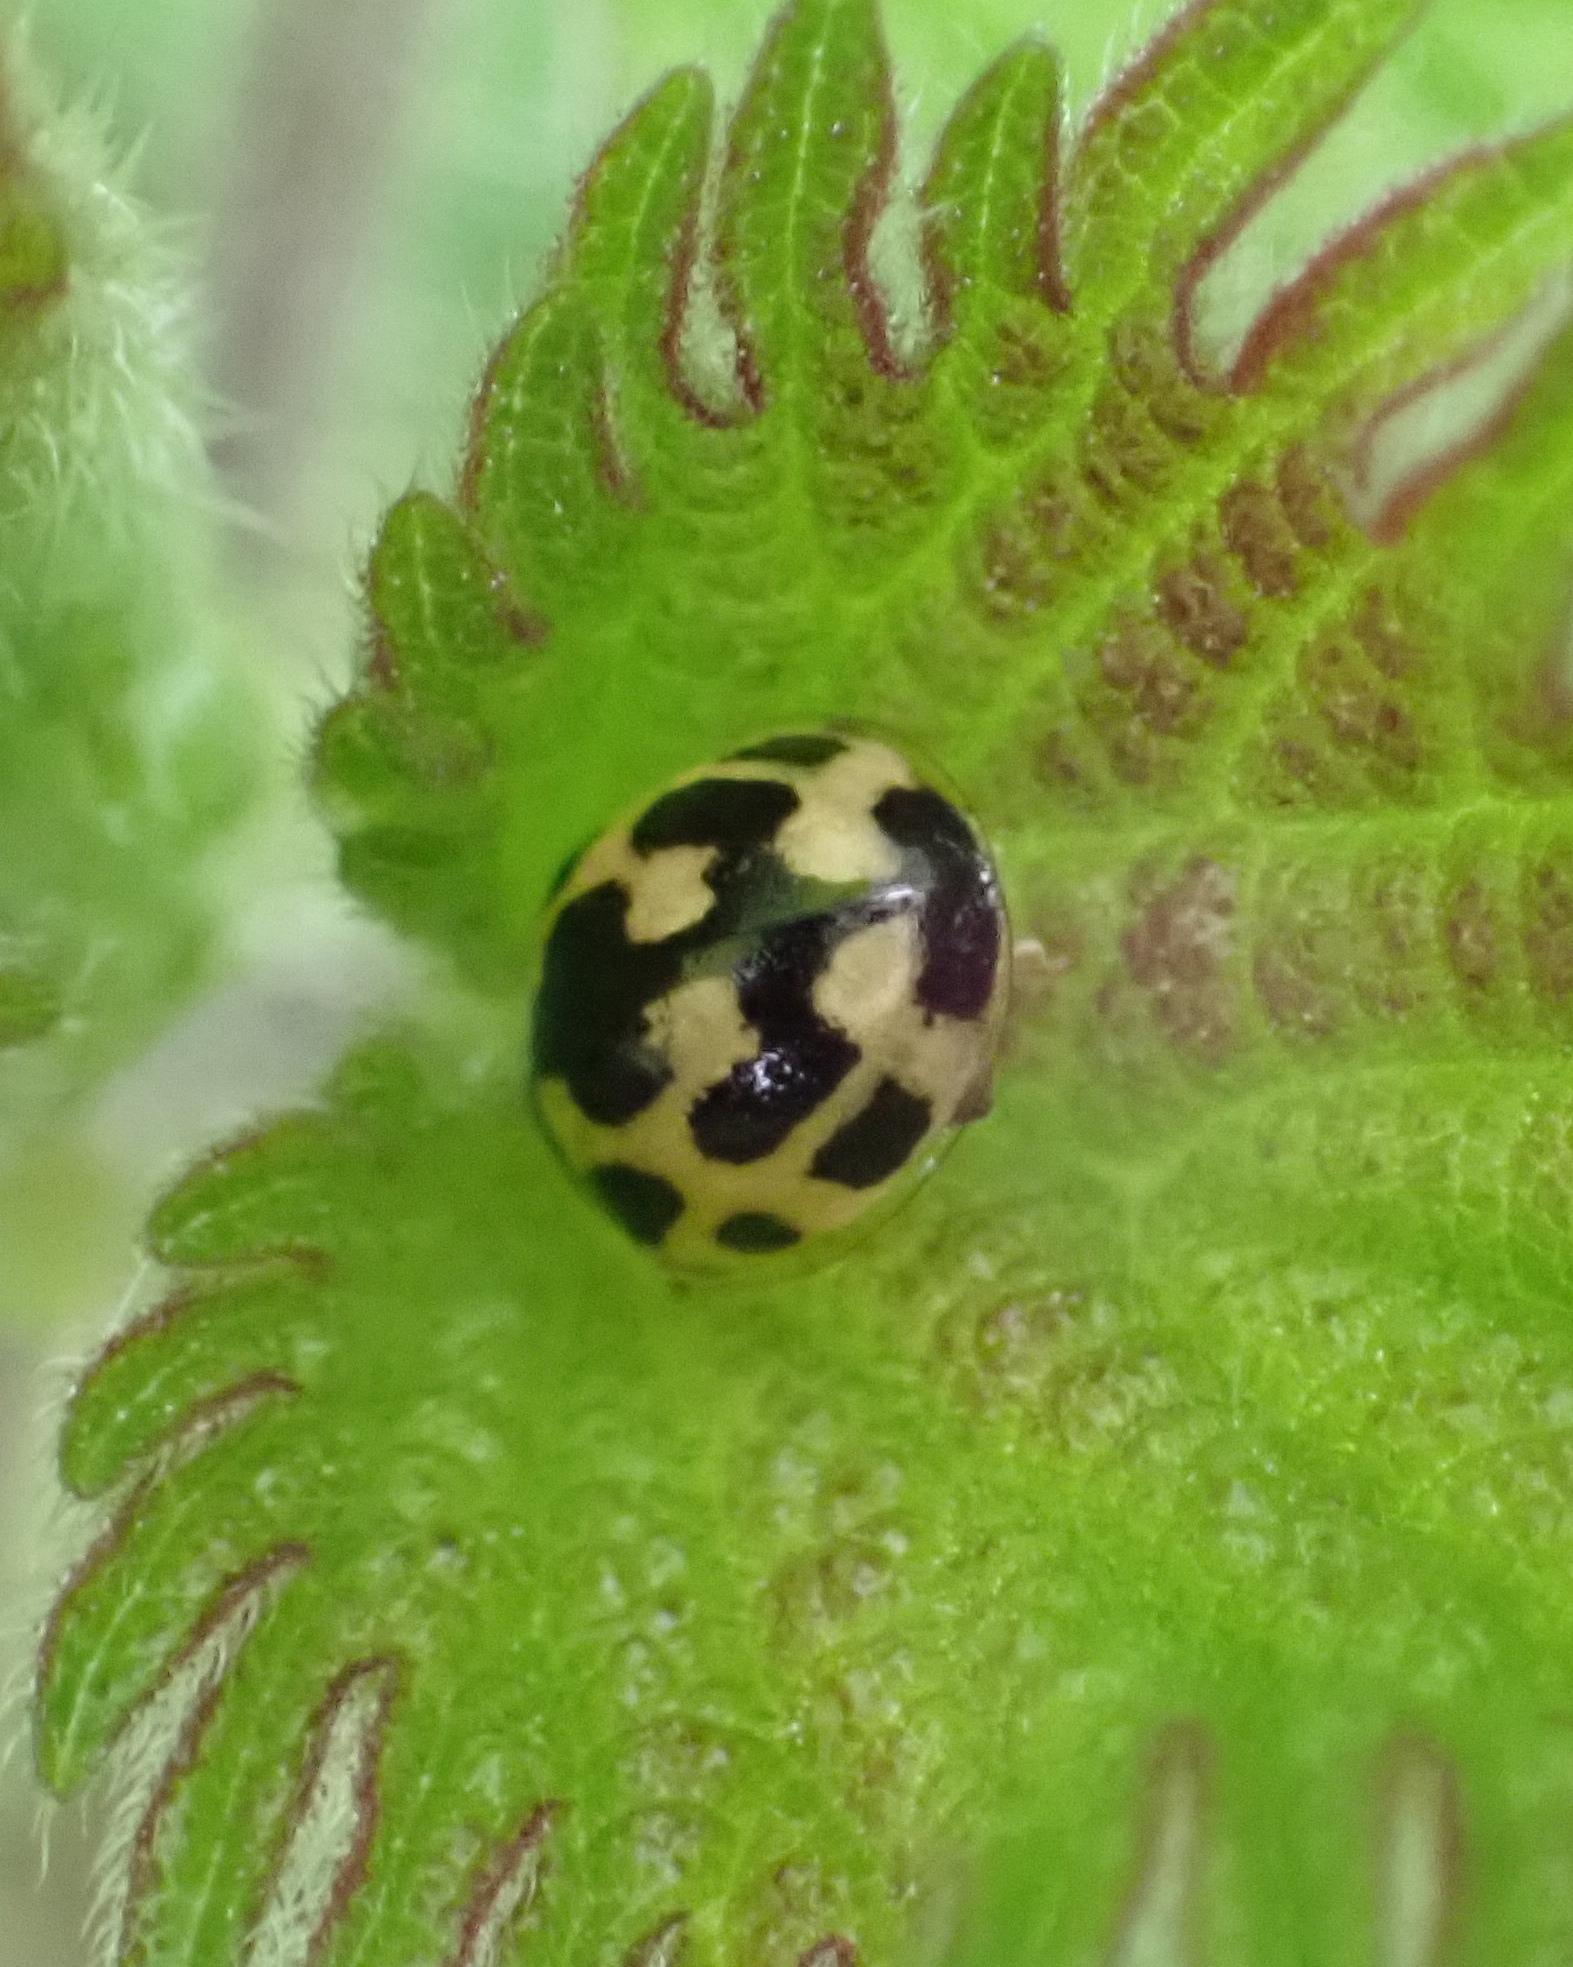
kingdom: Animalia
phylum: Arthropoda
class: Insecta
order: Coleoptera
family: Coccinellidae
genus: Propylaea
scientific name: Propylaea quatuordecimpunctata
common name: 14-spotted ladybird beetle
